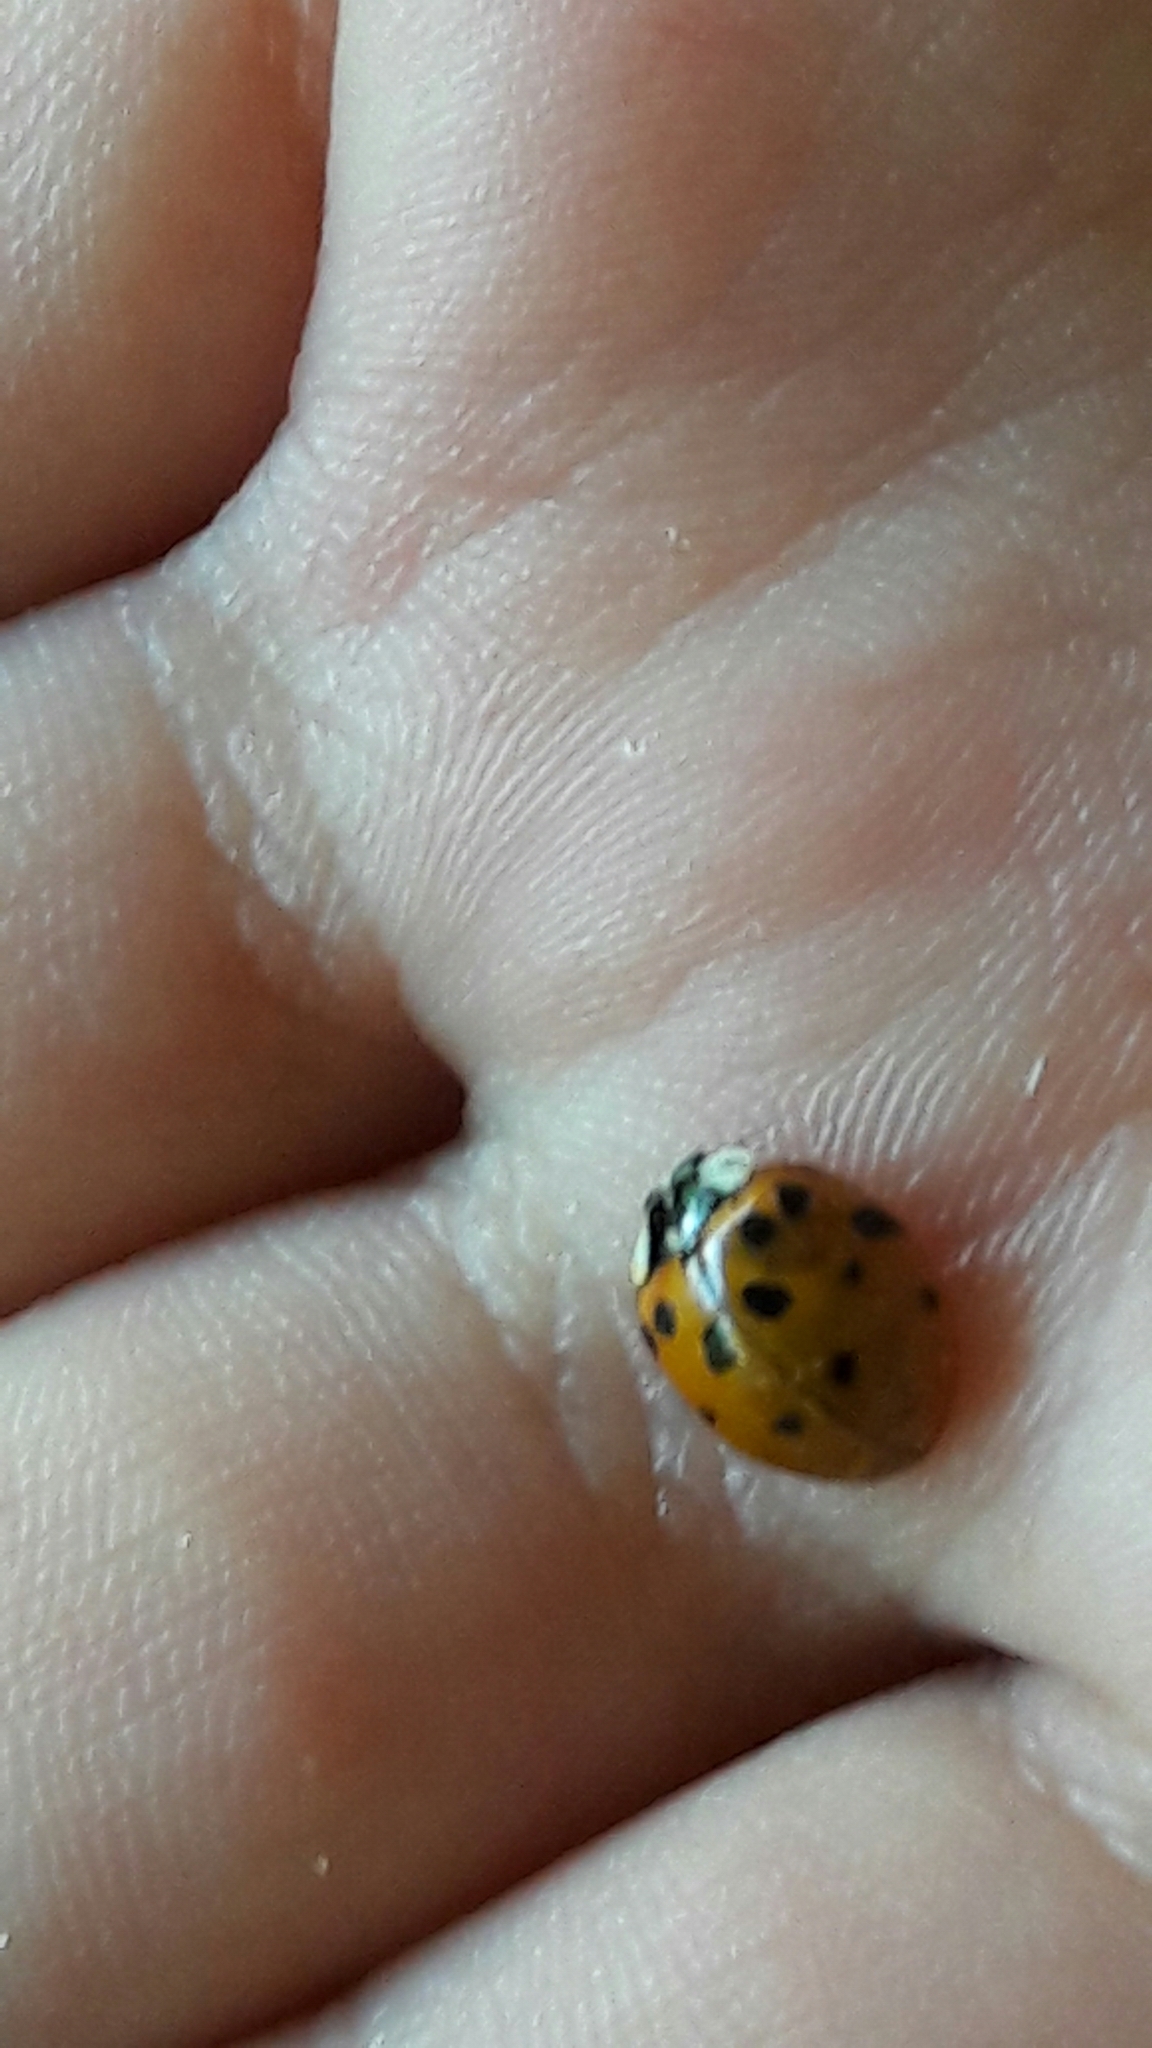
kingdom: Animalia
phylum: Arthropoda
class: Insecta
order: Coleoptera
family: Coccinellidae
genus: Harmonia
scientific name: Harmonia axyridis
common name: Harlequin ladybird
